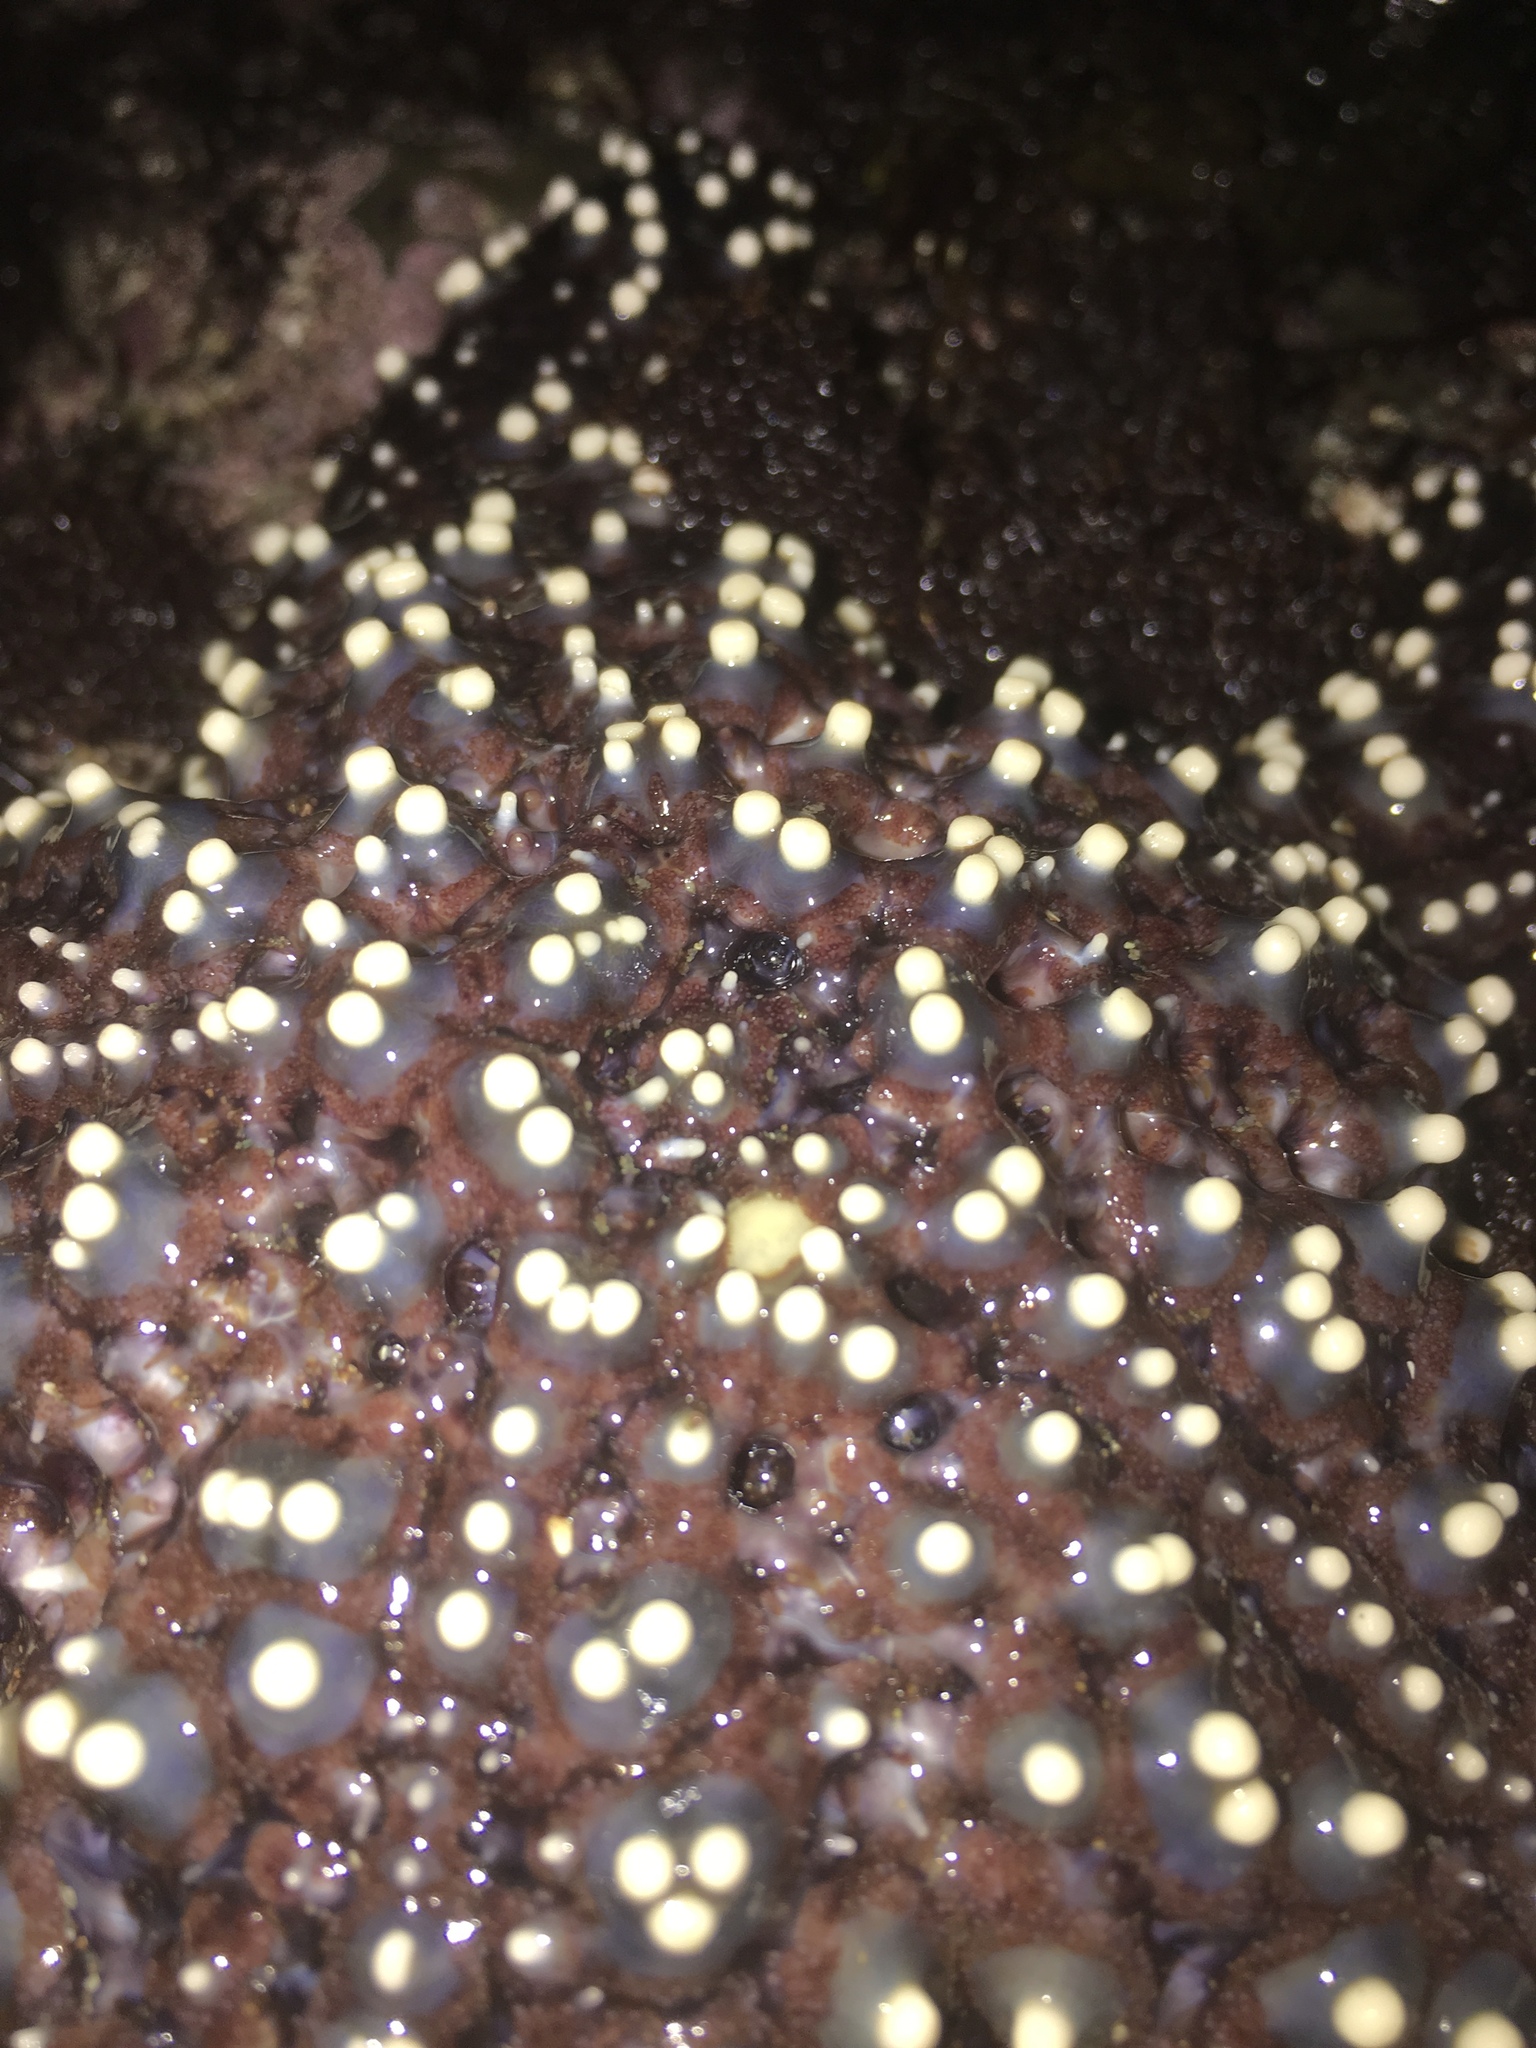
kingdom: Animalia
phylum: Echinodermata
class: Asteroidea
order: Forcipulatida
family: Asteriidae
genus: Pisaster
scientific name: Pisaster giganteus
